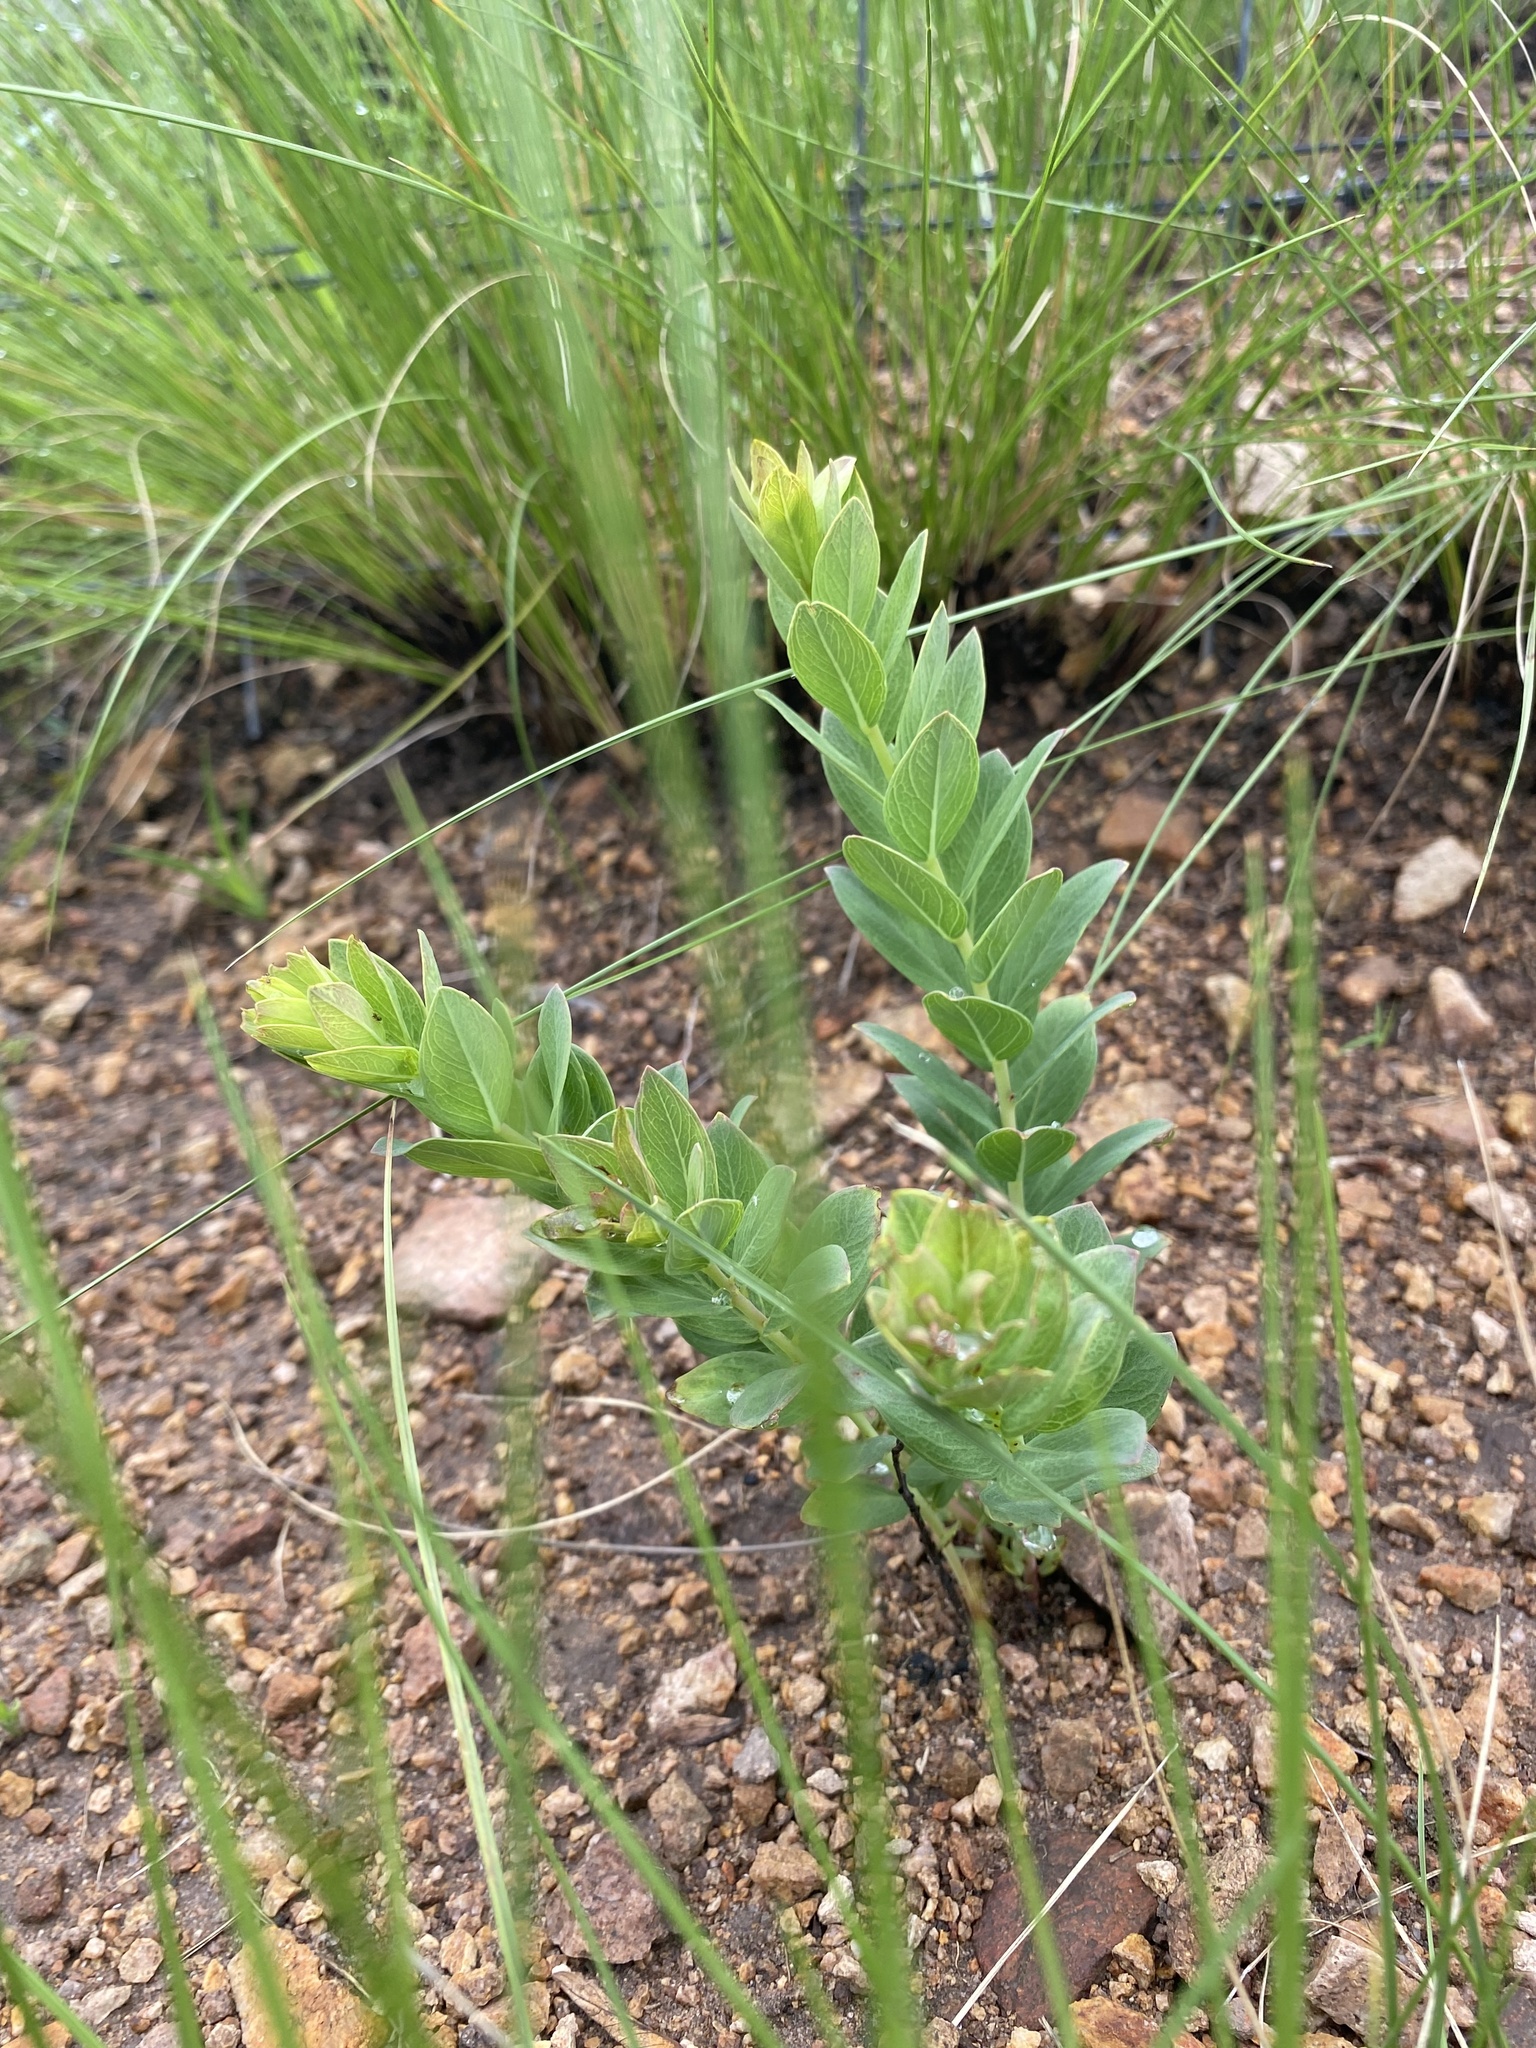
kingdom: Plantae
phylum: Tracheophyta
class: Magnoliopsida
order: Malvales
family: Thymelaeaceae
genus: Gnidia
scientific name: Gnidia kraussiana
